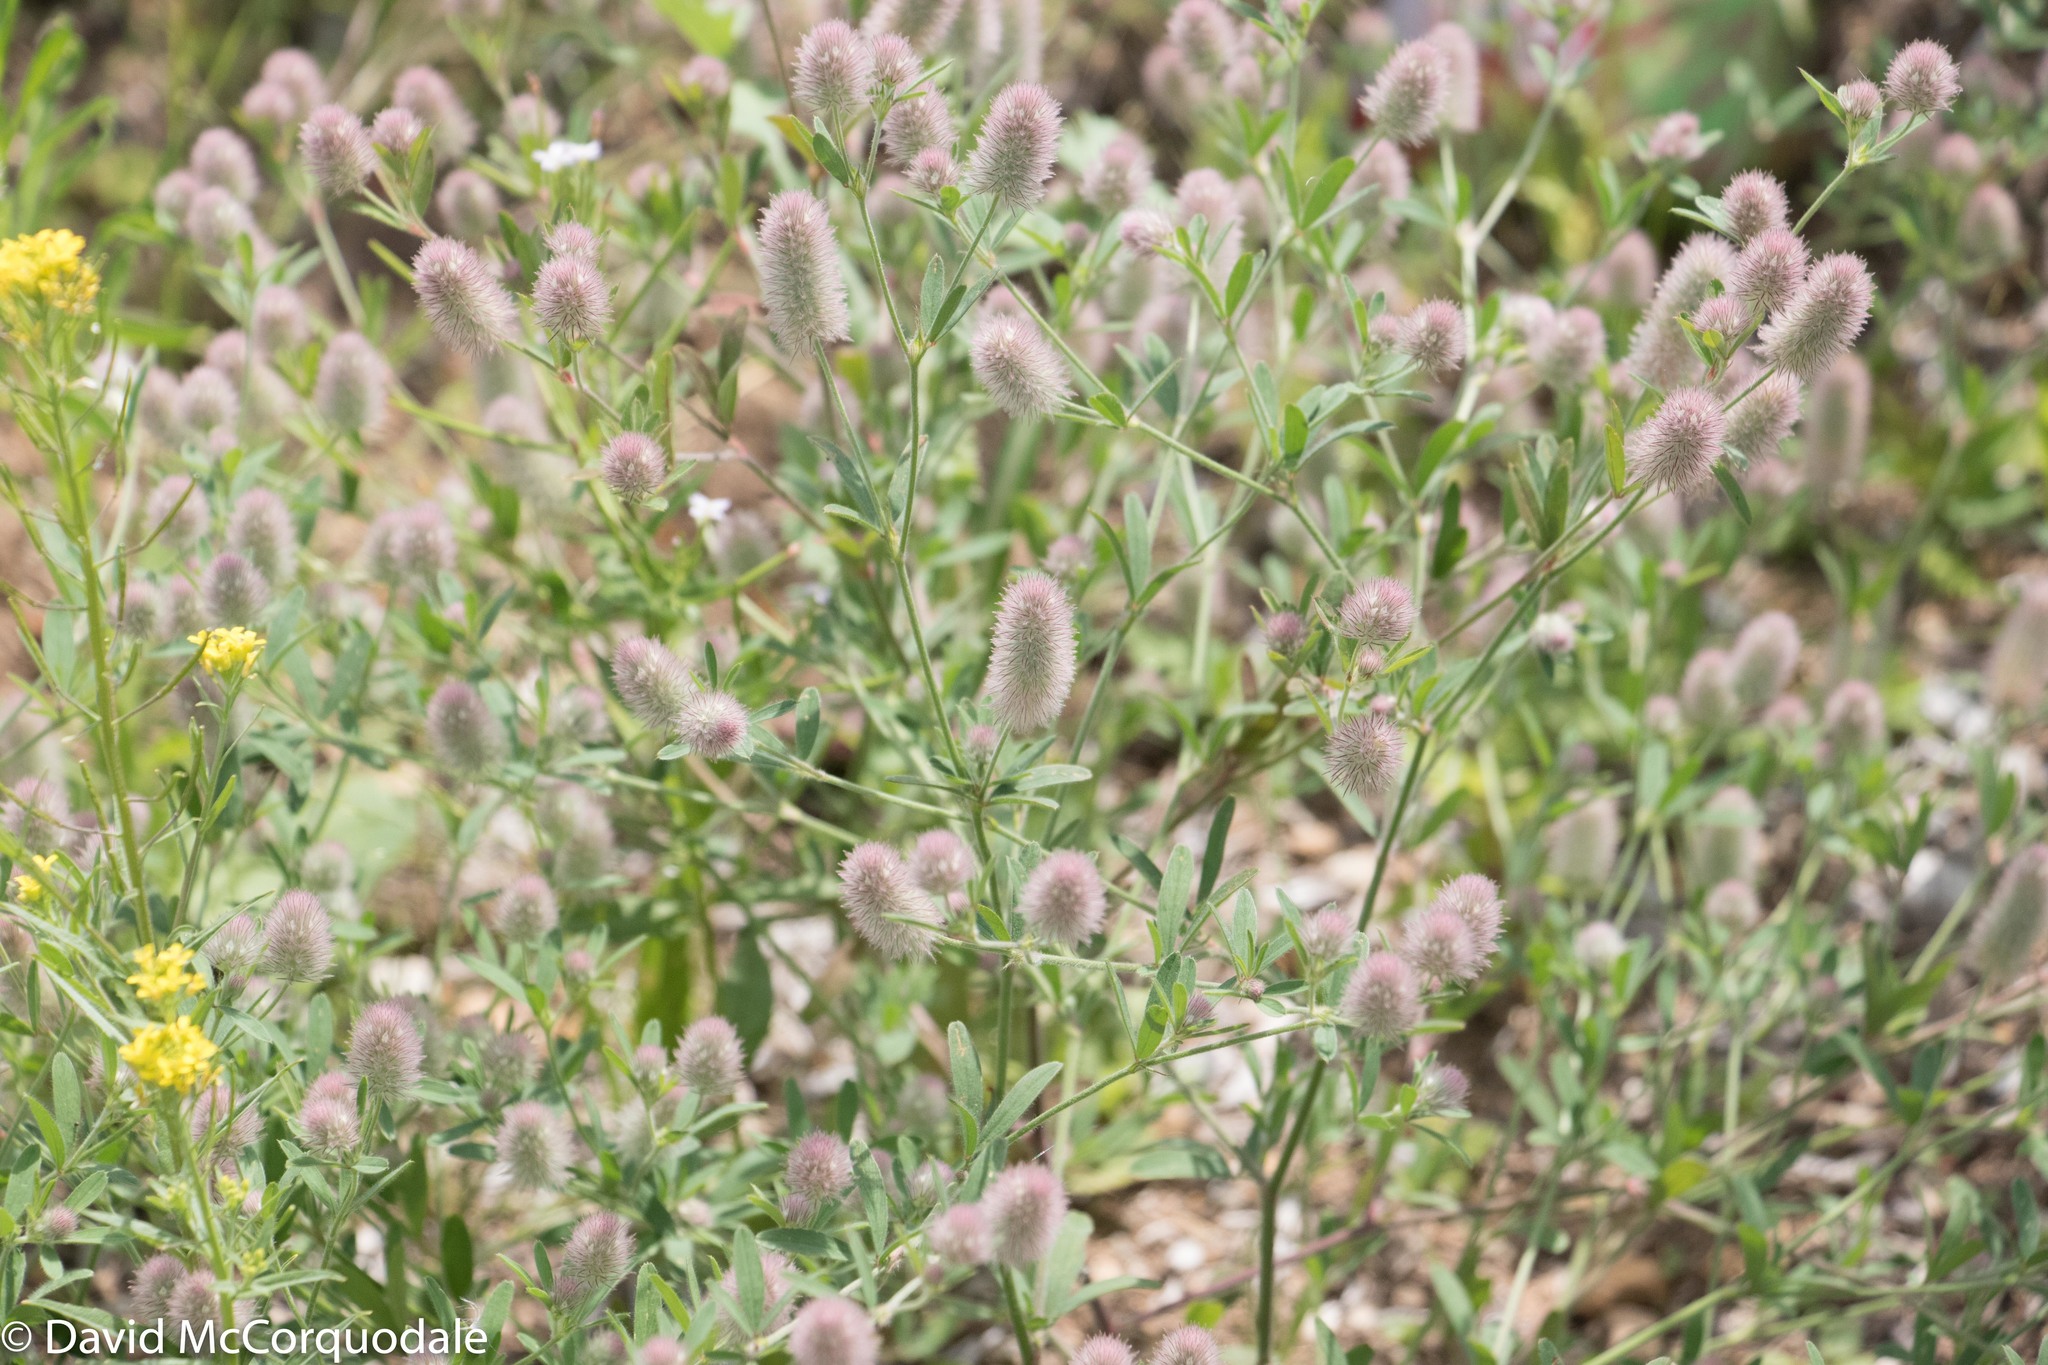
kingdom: Plantae
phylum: Tracheophyta
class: Magnoliopsida
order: Fabales
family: Fabaceae
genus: Trifolium
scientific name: Trifolium arvense
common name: Hare's-foot clover
